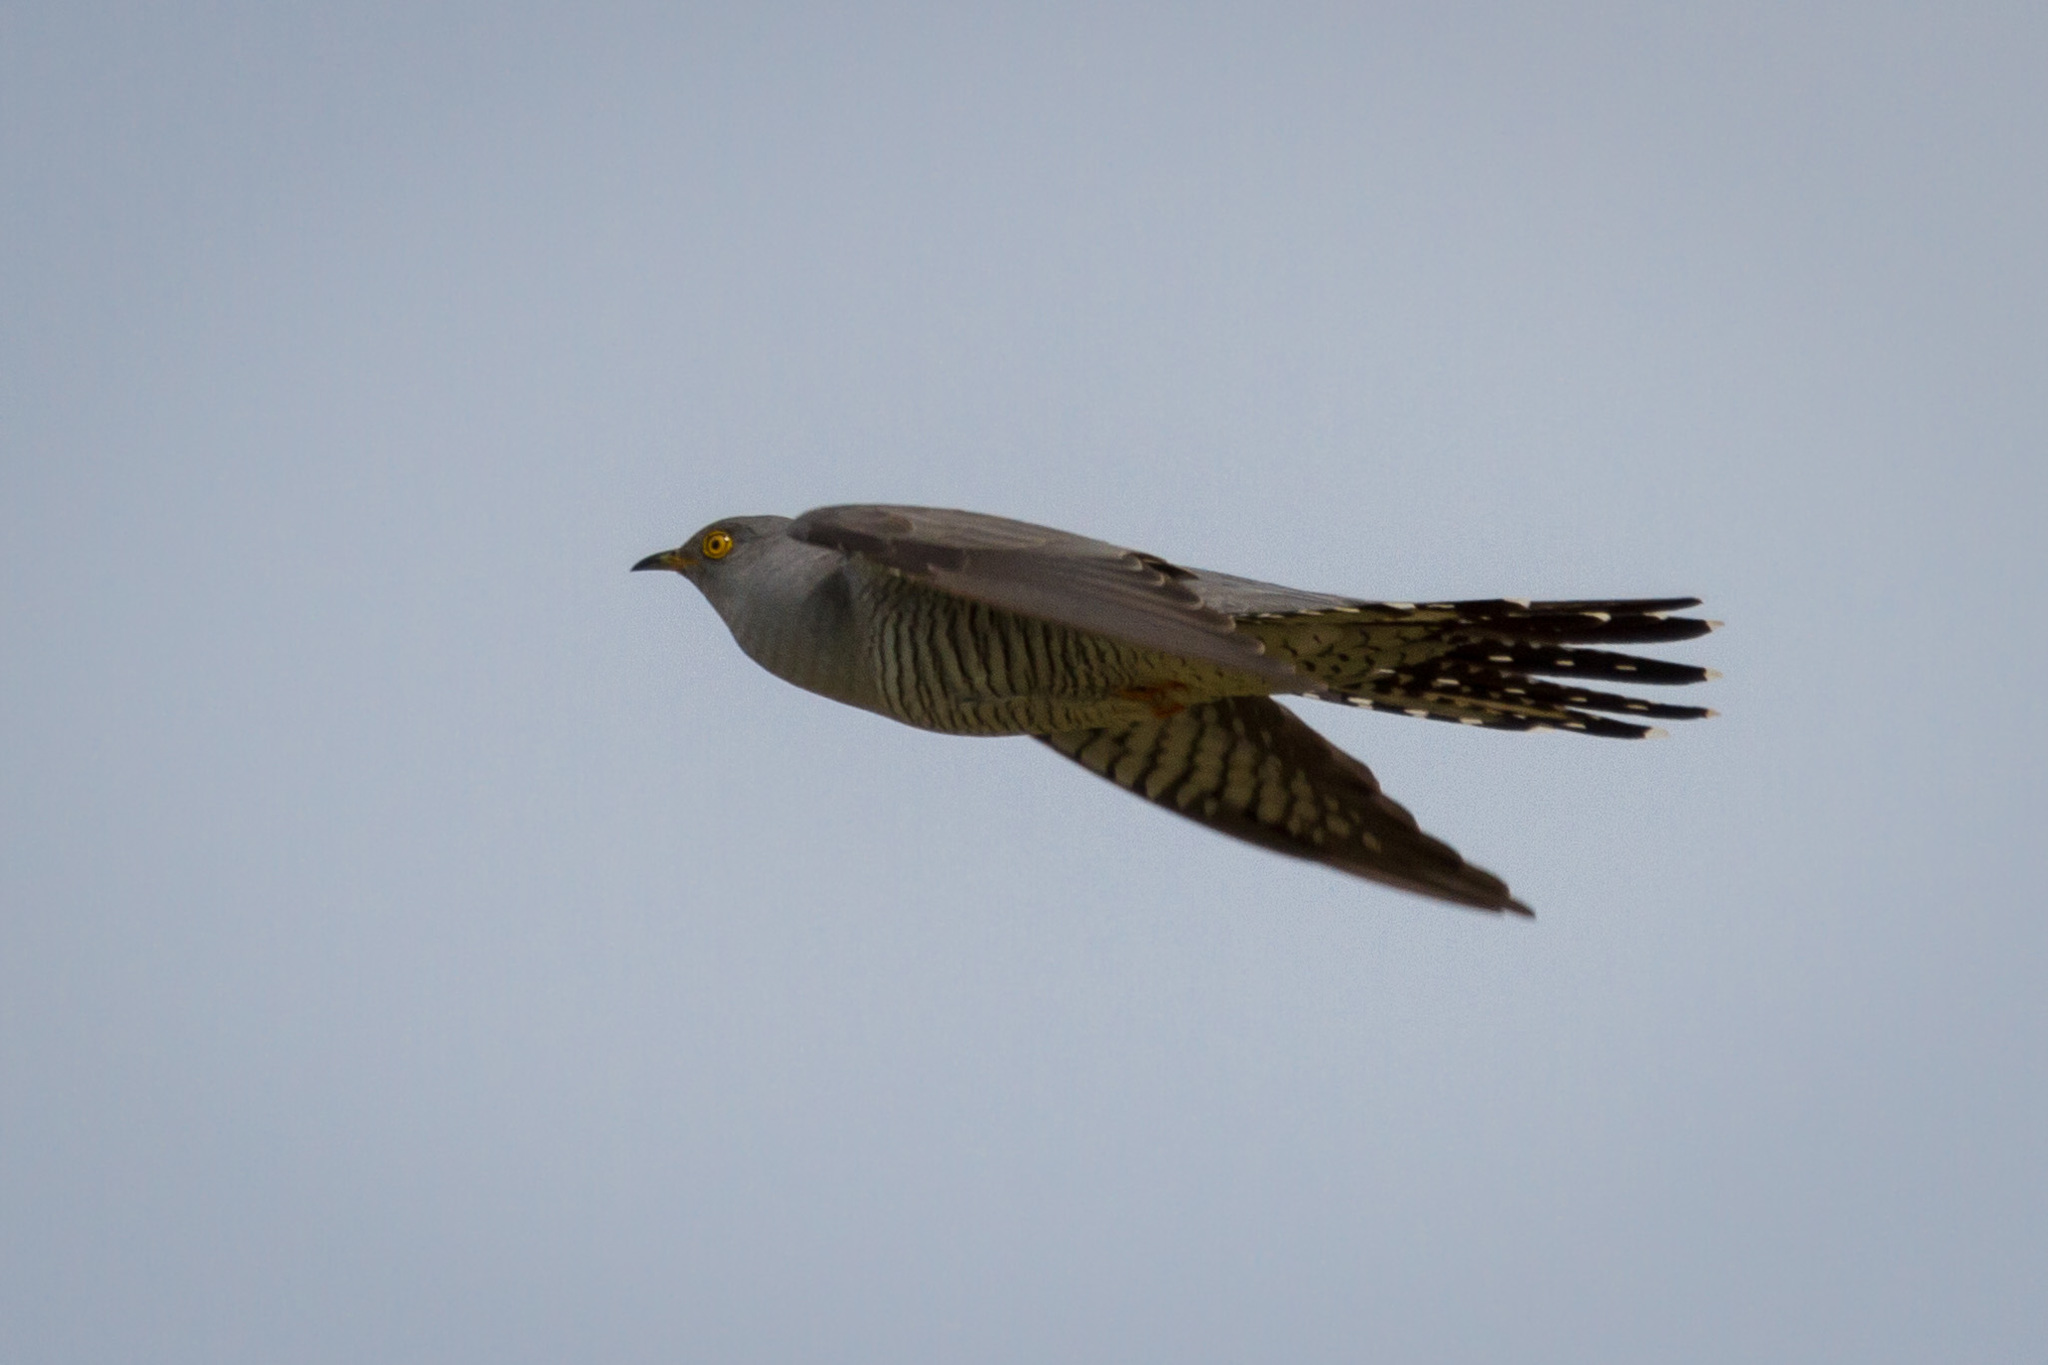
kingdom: Animalia
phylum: Chordata
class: Aves
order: Cuculiformes
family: Cuculidae
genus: Cuculus
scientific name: Cuculus canorus
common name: Common cuckoo
